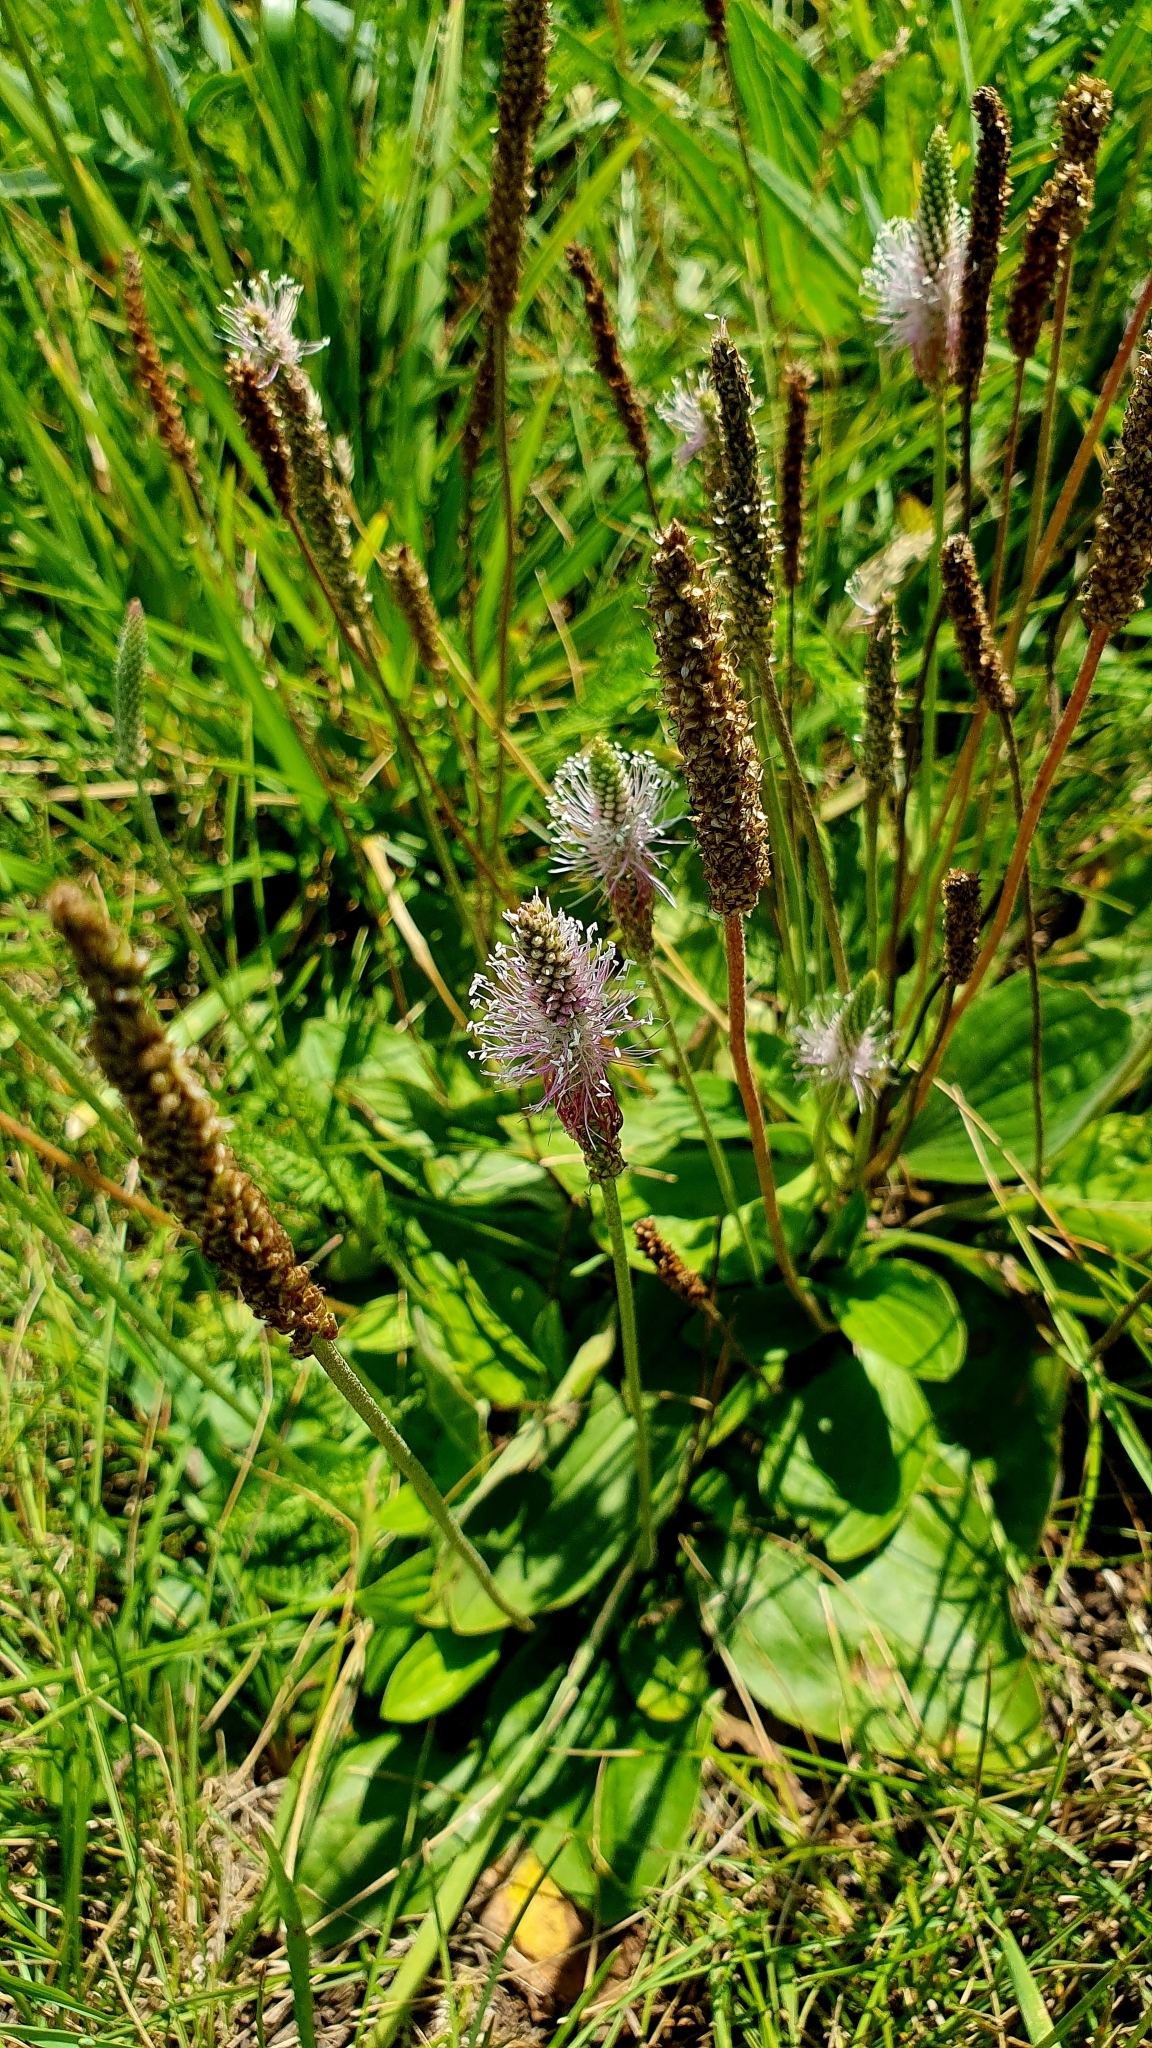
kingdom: Plantae
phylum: Tracheophyta
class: Magnoliopsida
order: Lamiales
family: Plantaginaceae
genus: Plantago
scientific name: Plantago media
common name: Hoary plantain
